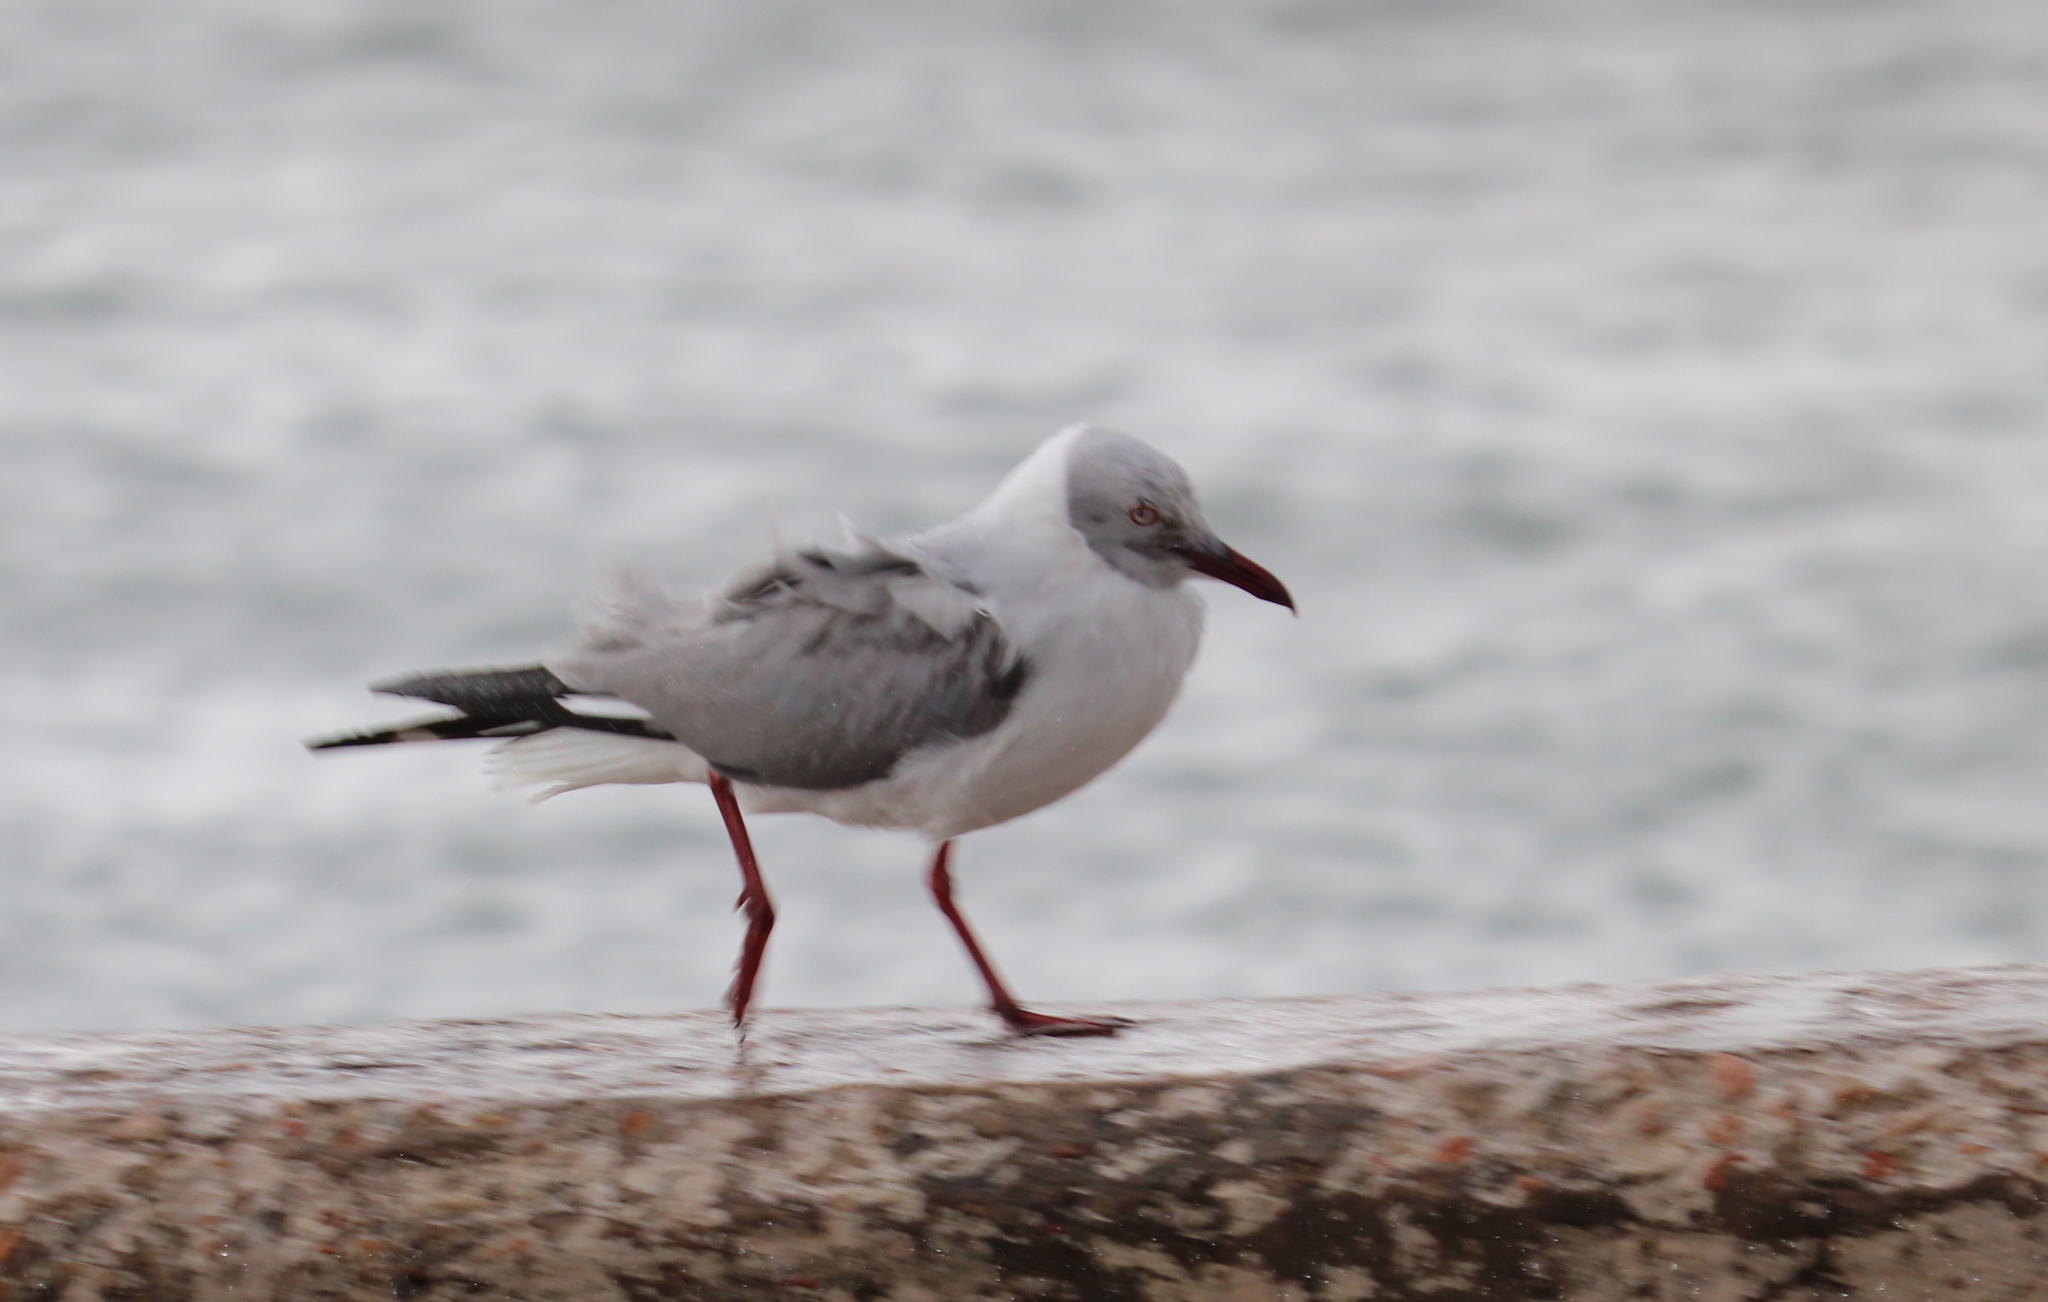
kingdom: Animalia
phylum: Chordata
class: Aves
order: Charadriiformes
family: Laridae
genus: Chroicocephalus
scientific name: Chroicocephalus cirrocephalus
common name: Grey-headed gull
